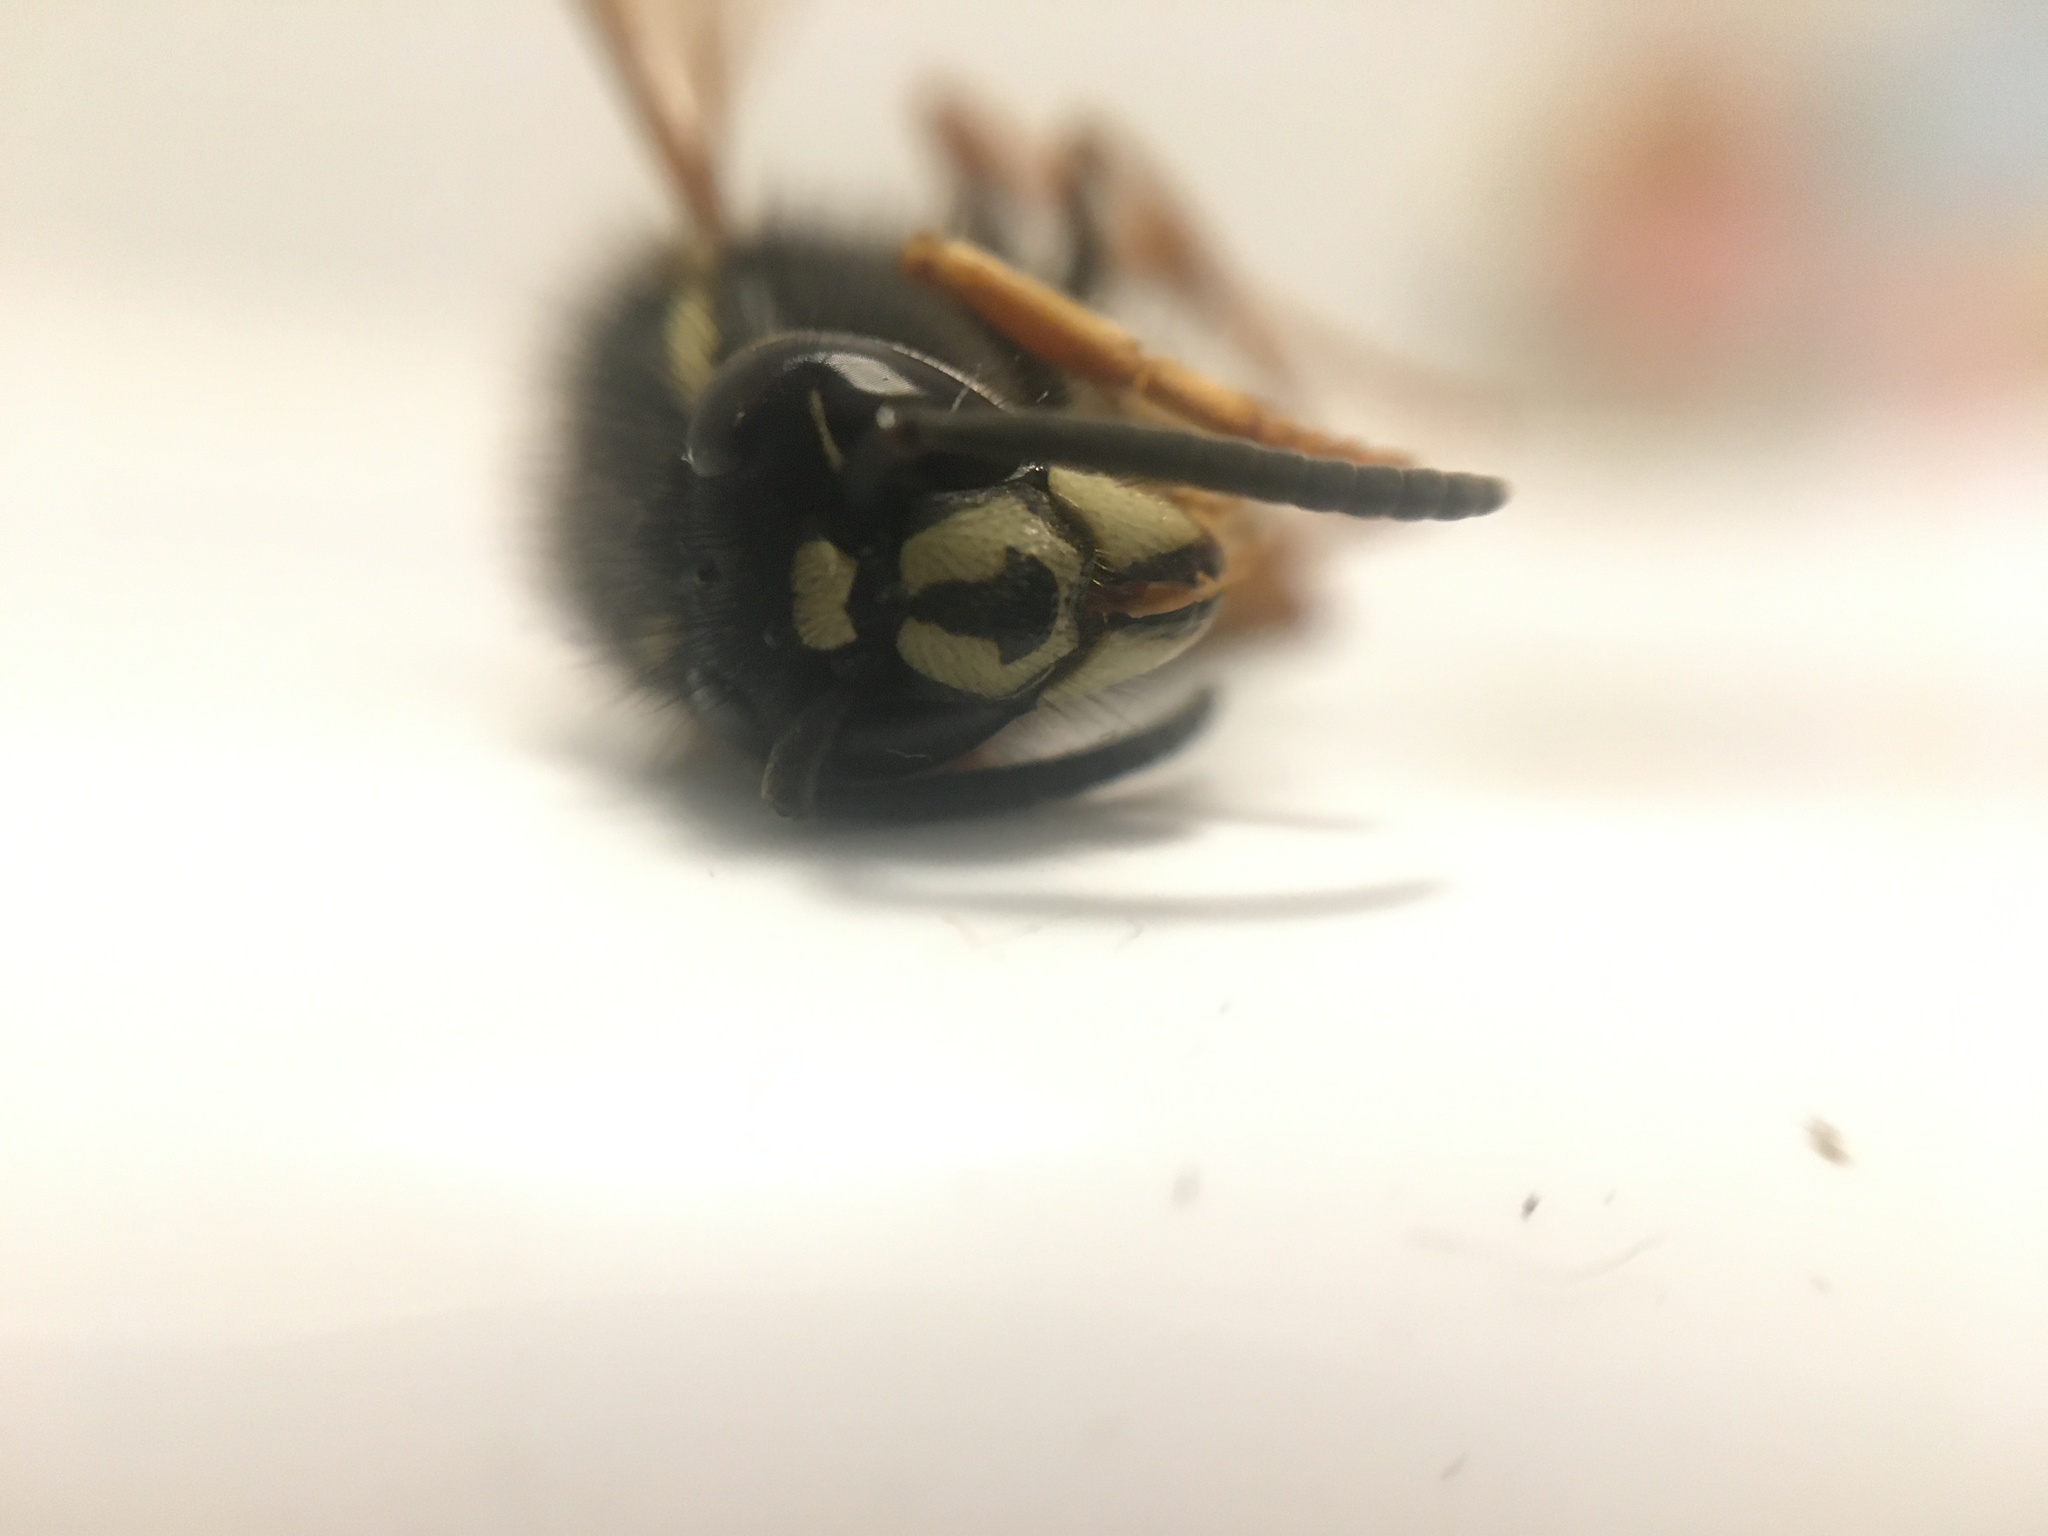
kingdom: Animalia
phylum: Arthropoda
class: Insecta
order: Hymenoptera
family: Vespidae
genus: Vespula
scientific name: Vespula rufa
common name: Red wasp
